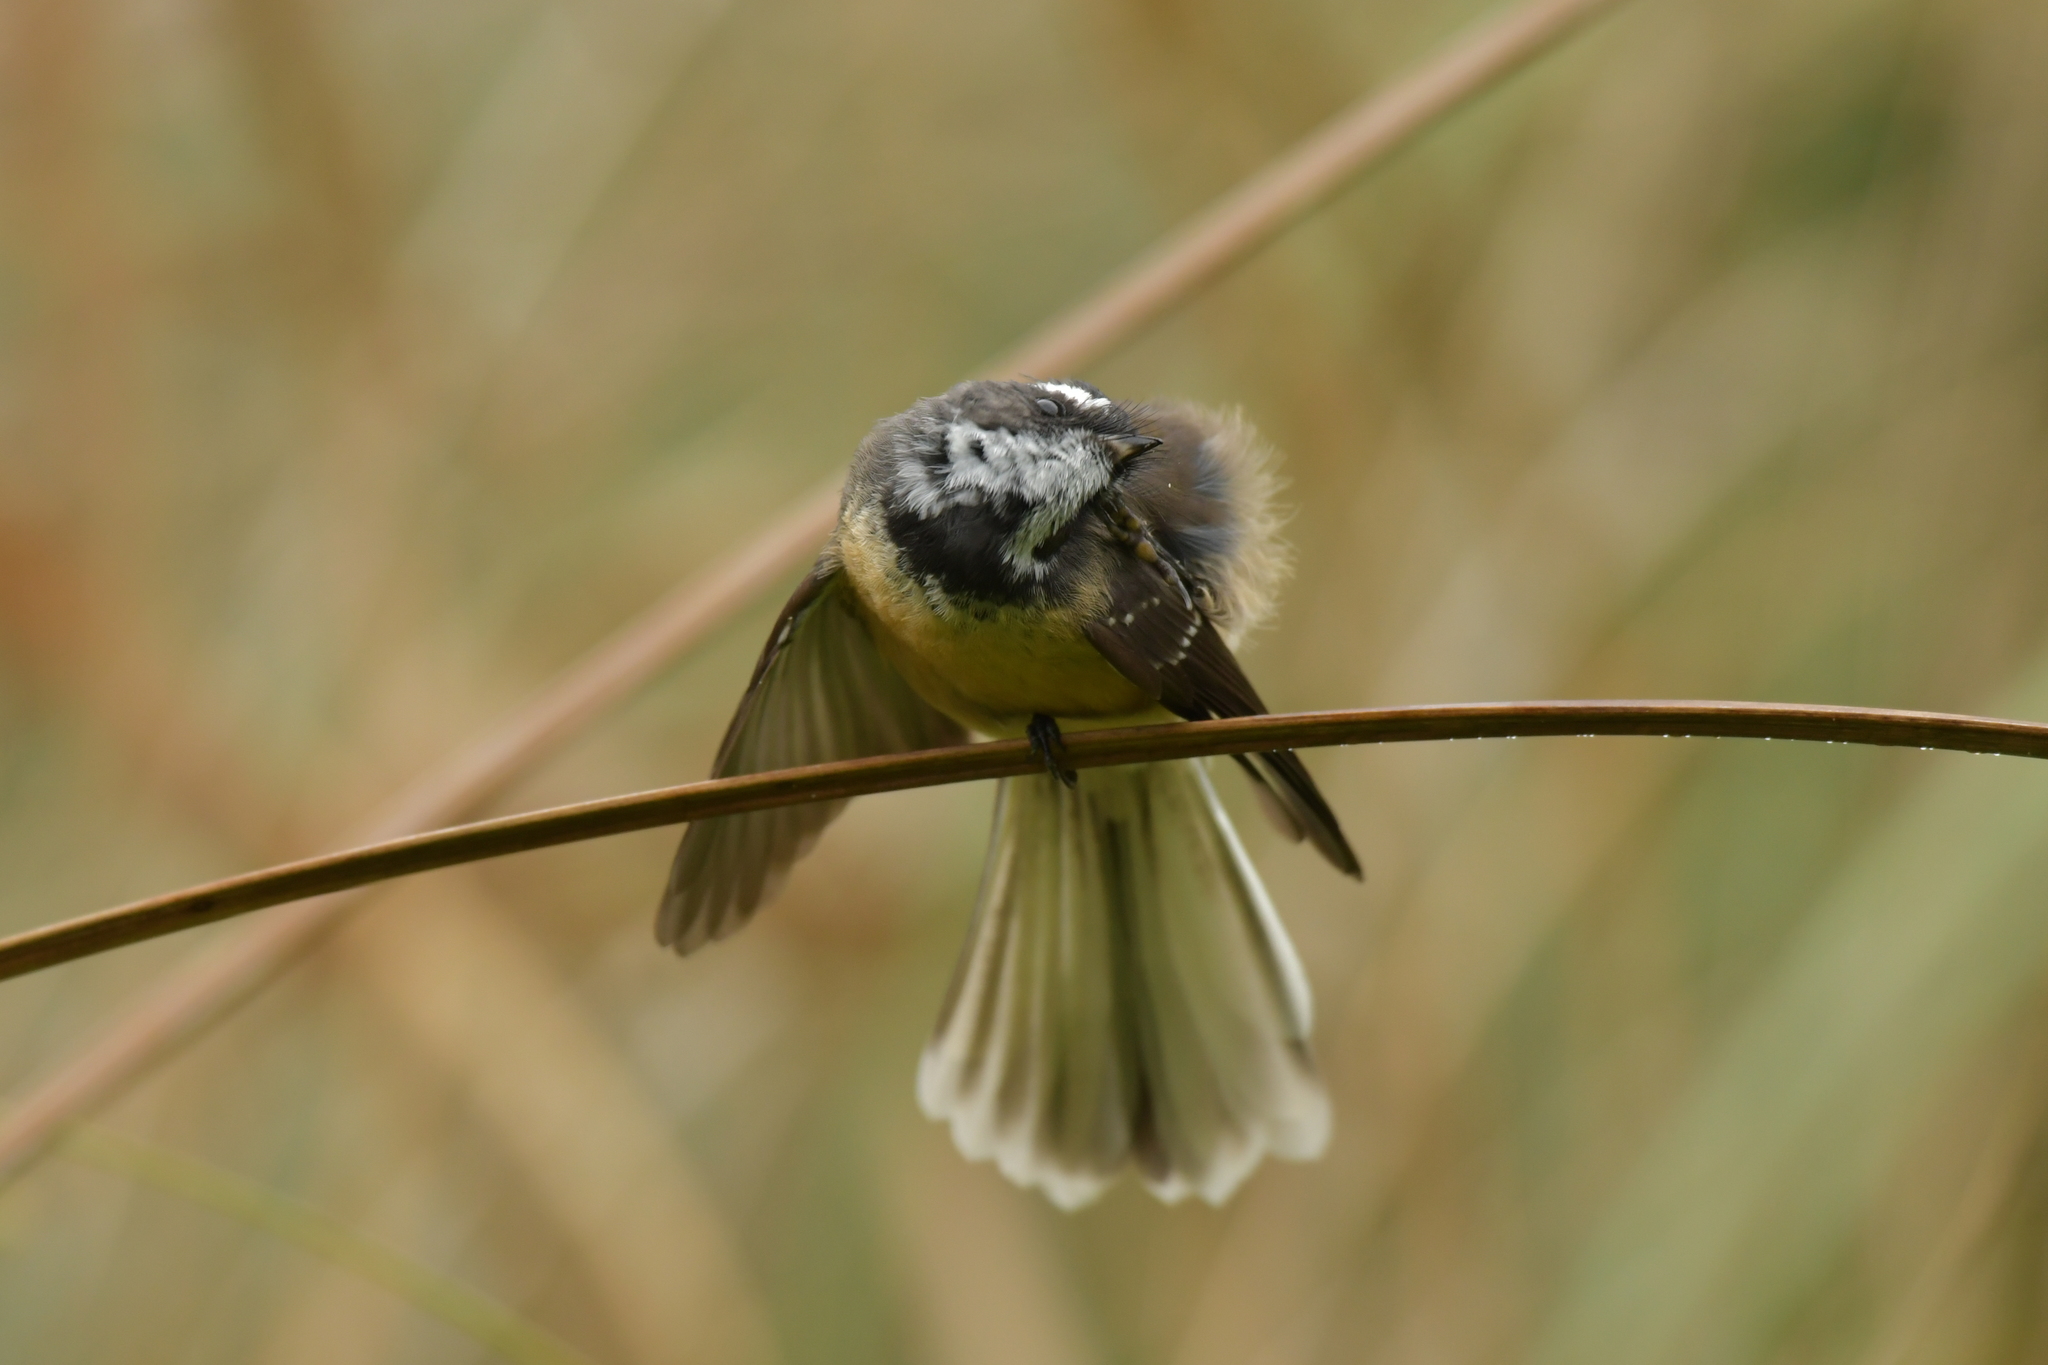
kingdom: Animalia
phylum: Chordata
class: Aves
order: Passeriformes
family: Rhipiduridae
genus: Rhipidura
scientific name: Rhipidura fuliginosa
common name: New zealand fantail
